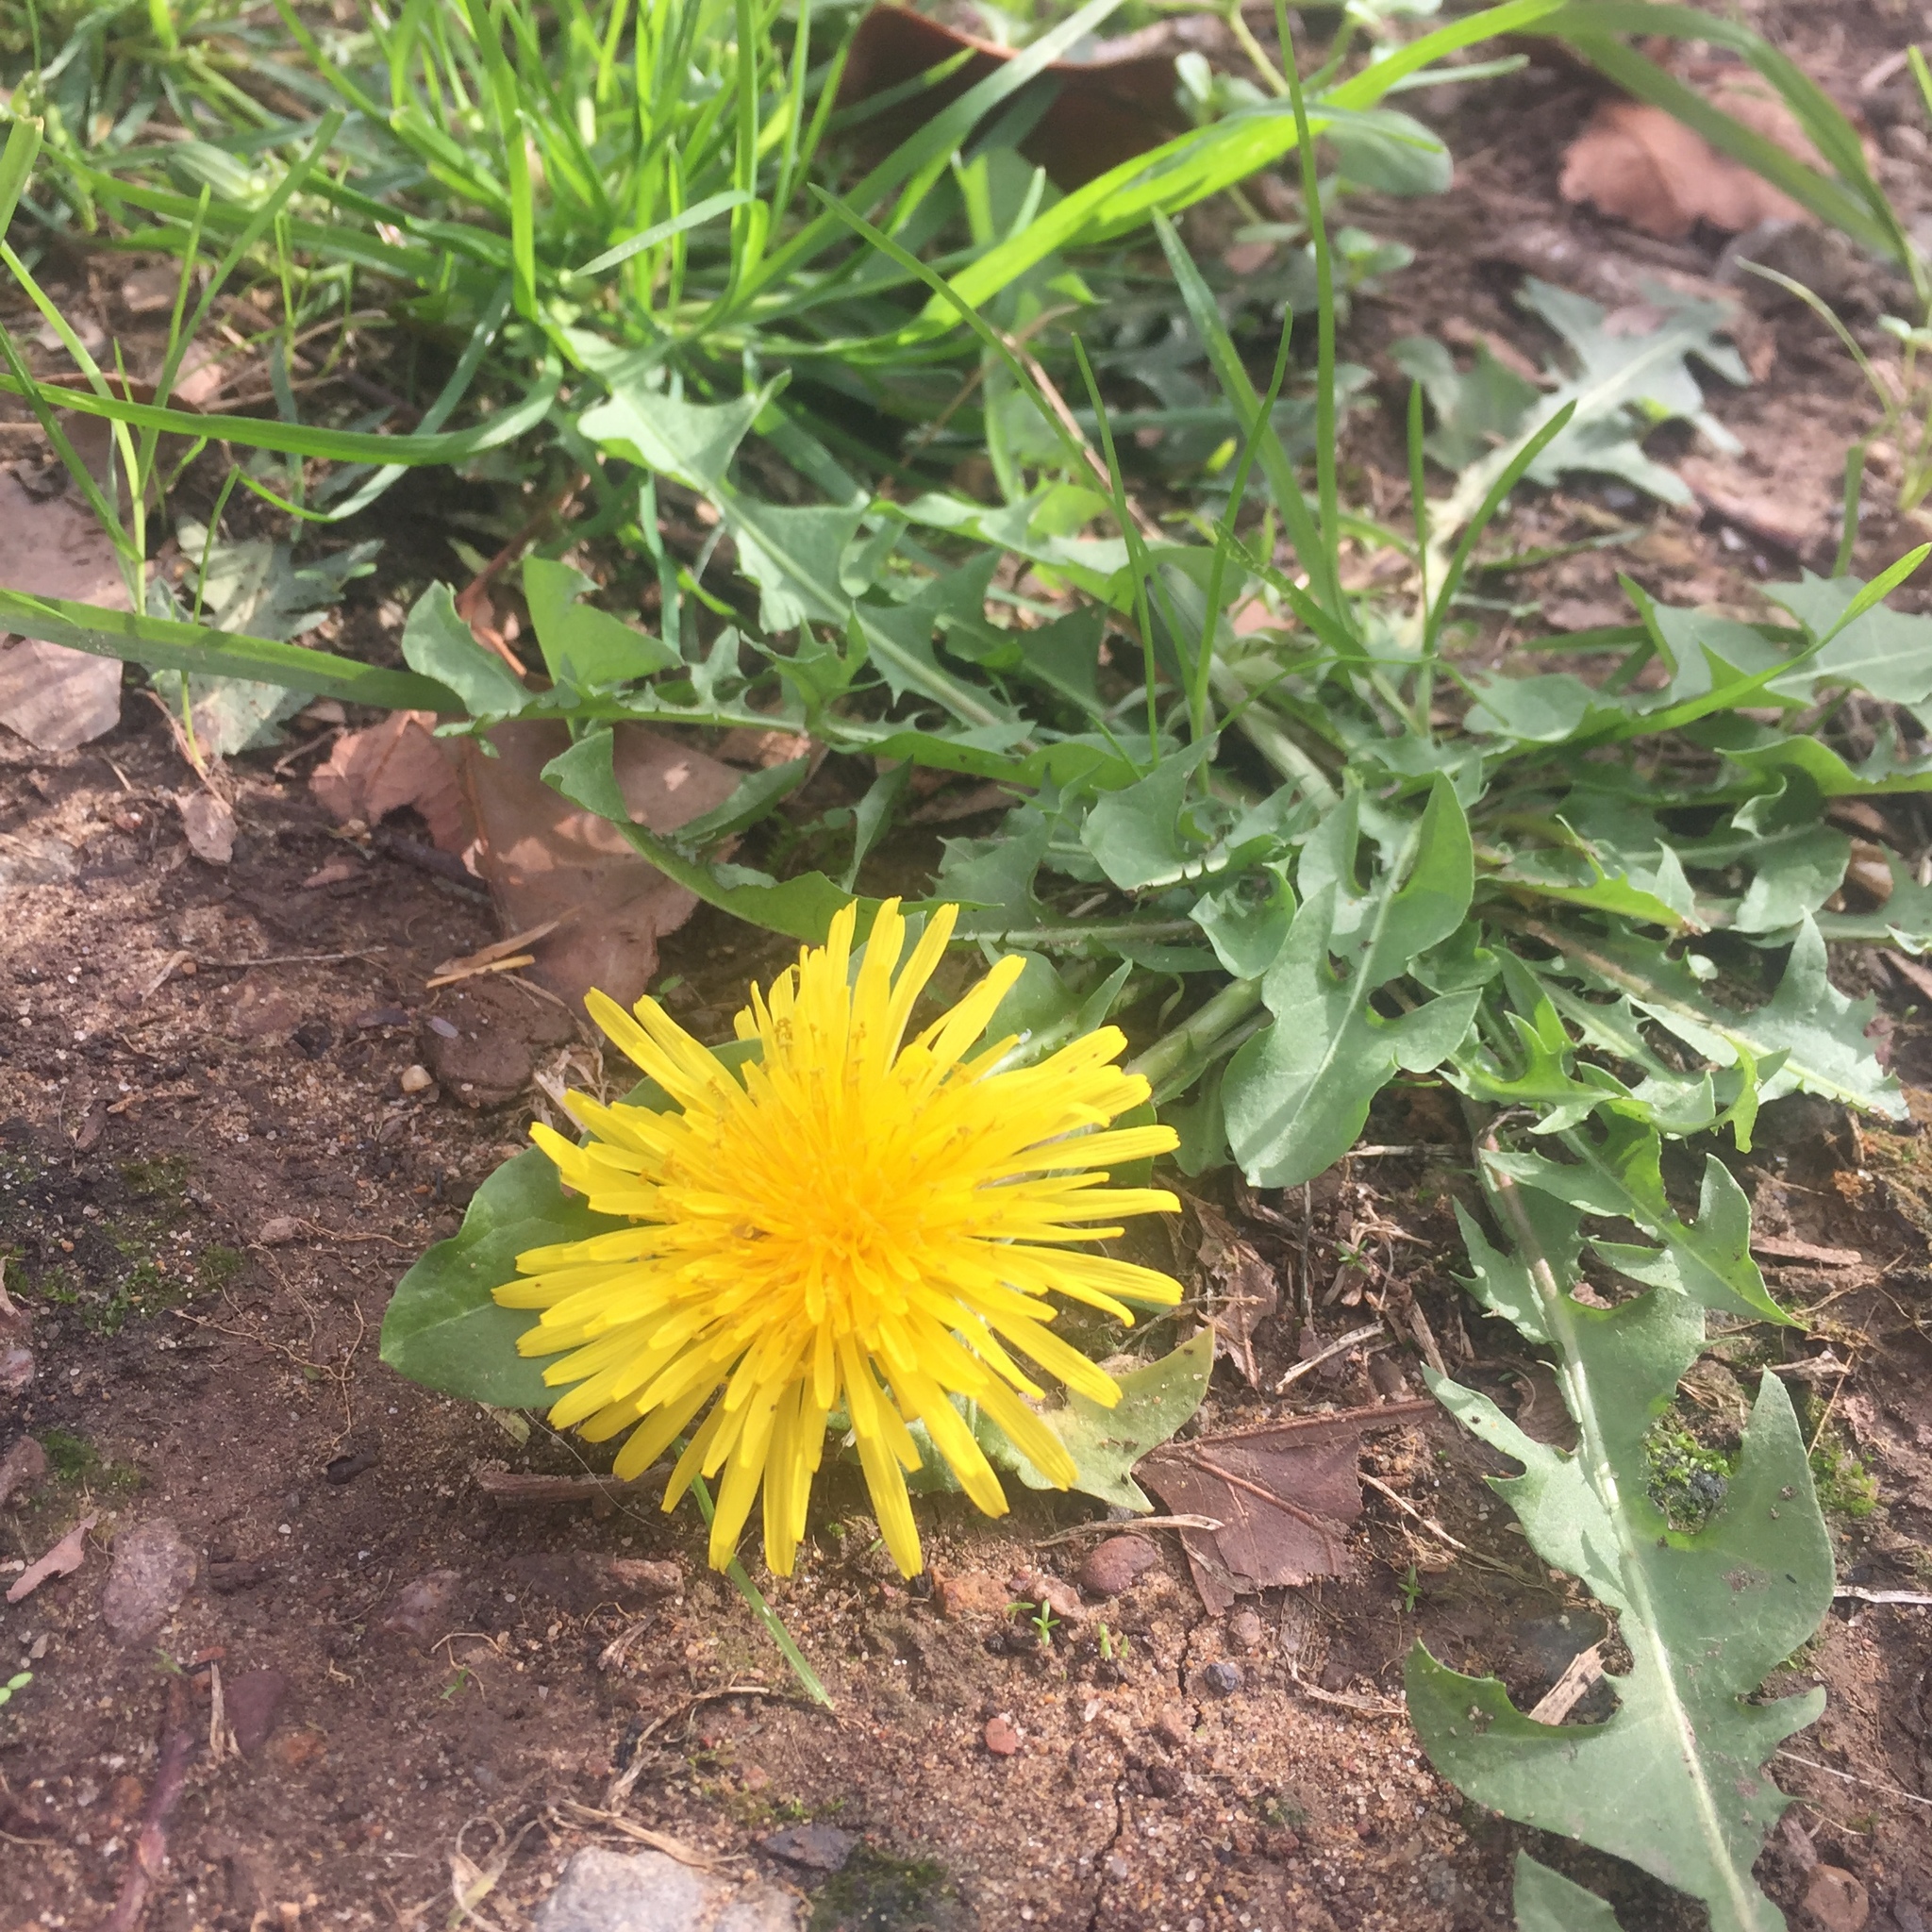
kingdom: Plantae
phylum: Tracheophyta
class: Magnoliopsida
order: Asterales
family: Asteraceae
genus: Taraxacum
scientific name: Taraxacum
